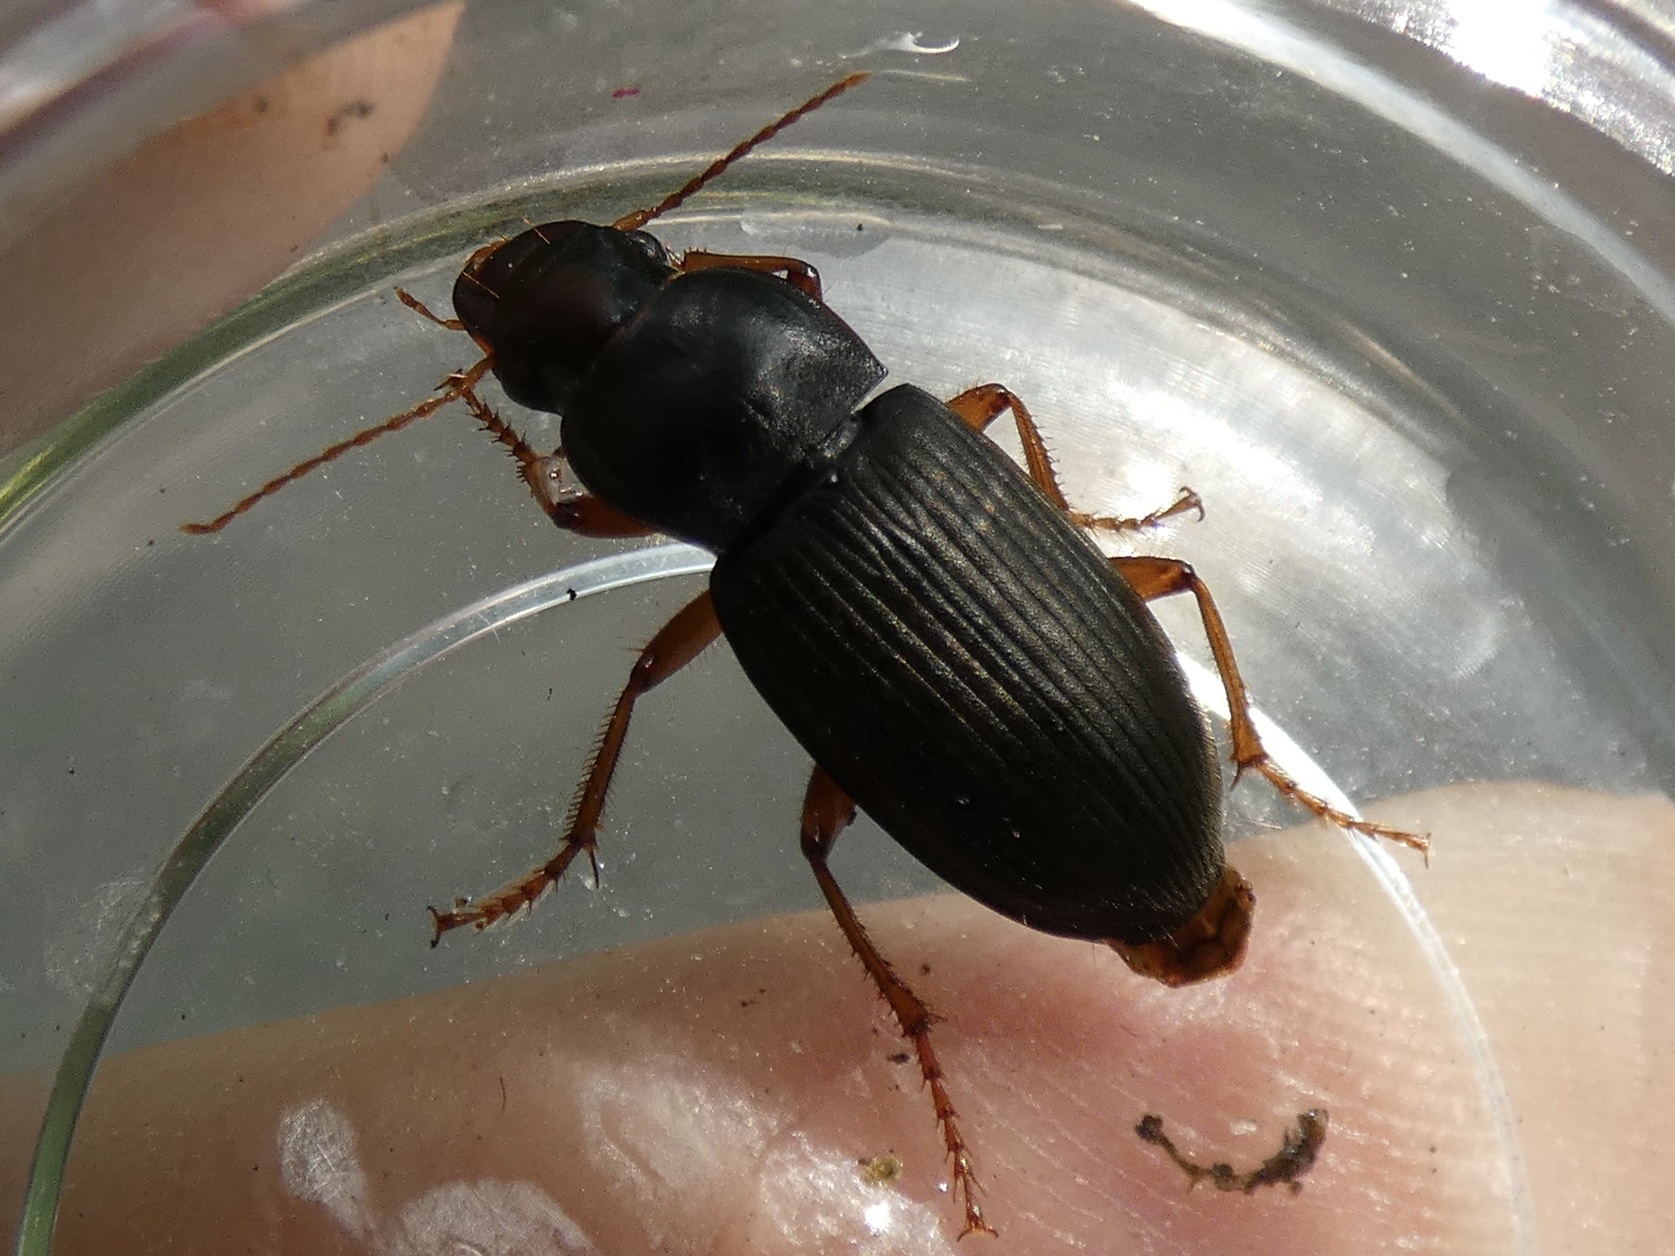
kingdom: Animalia
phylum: Arthropoda
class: Insecta
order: Coleoptera
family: Carabidae
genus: Harpalus
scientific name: Harpalus rufipes
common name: Strawberry harp ground beetle
